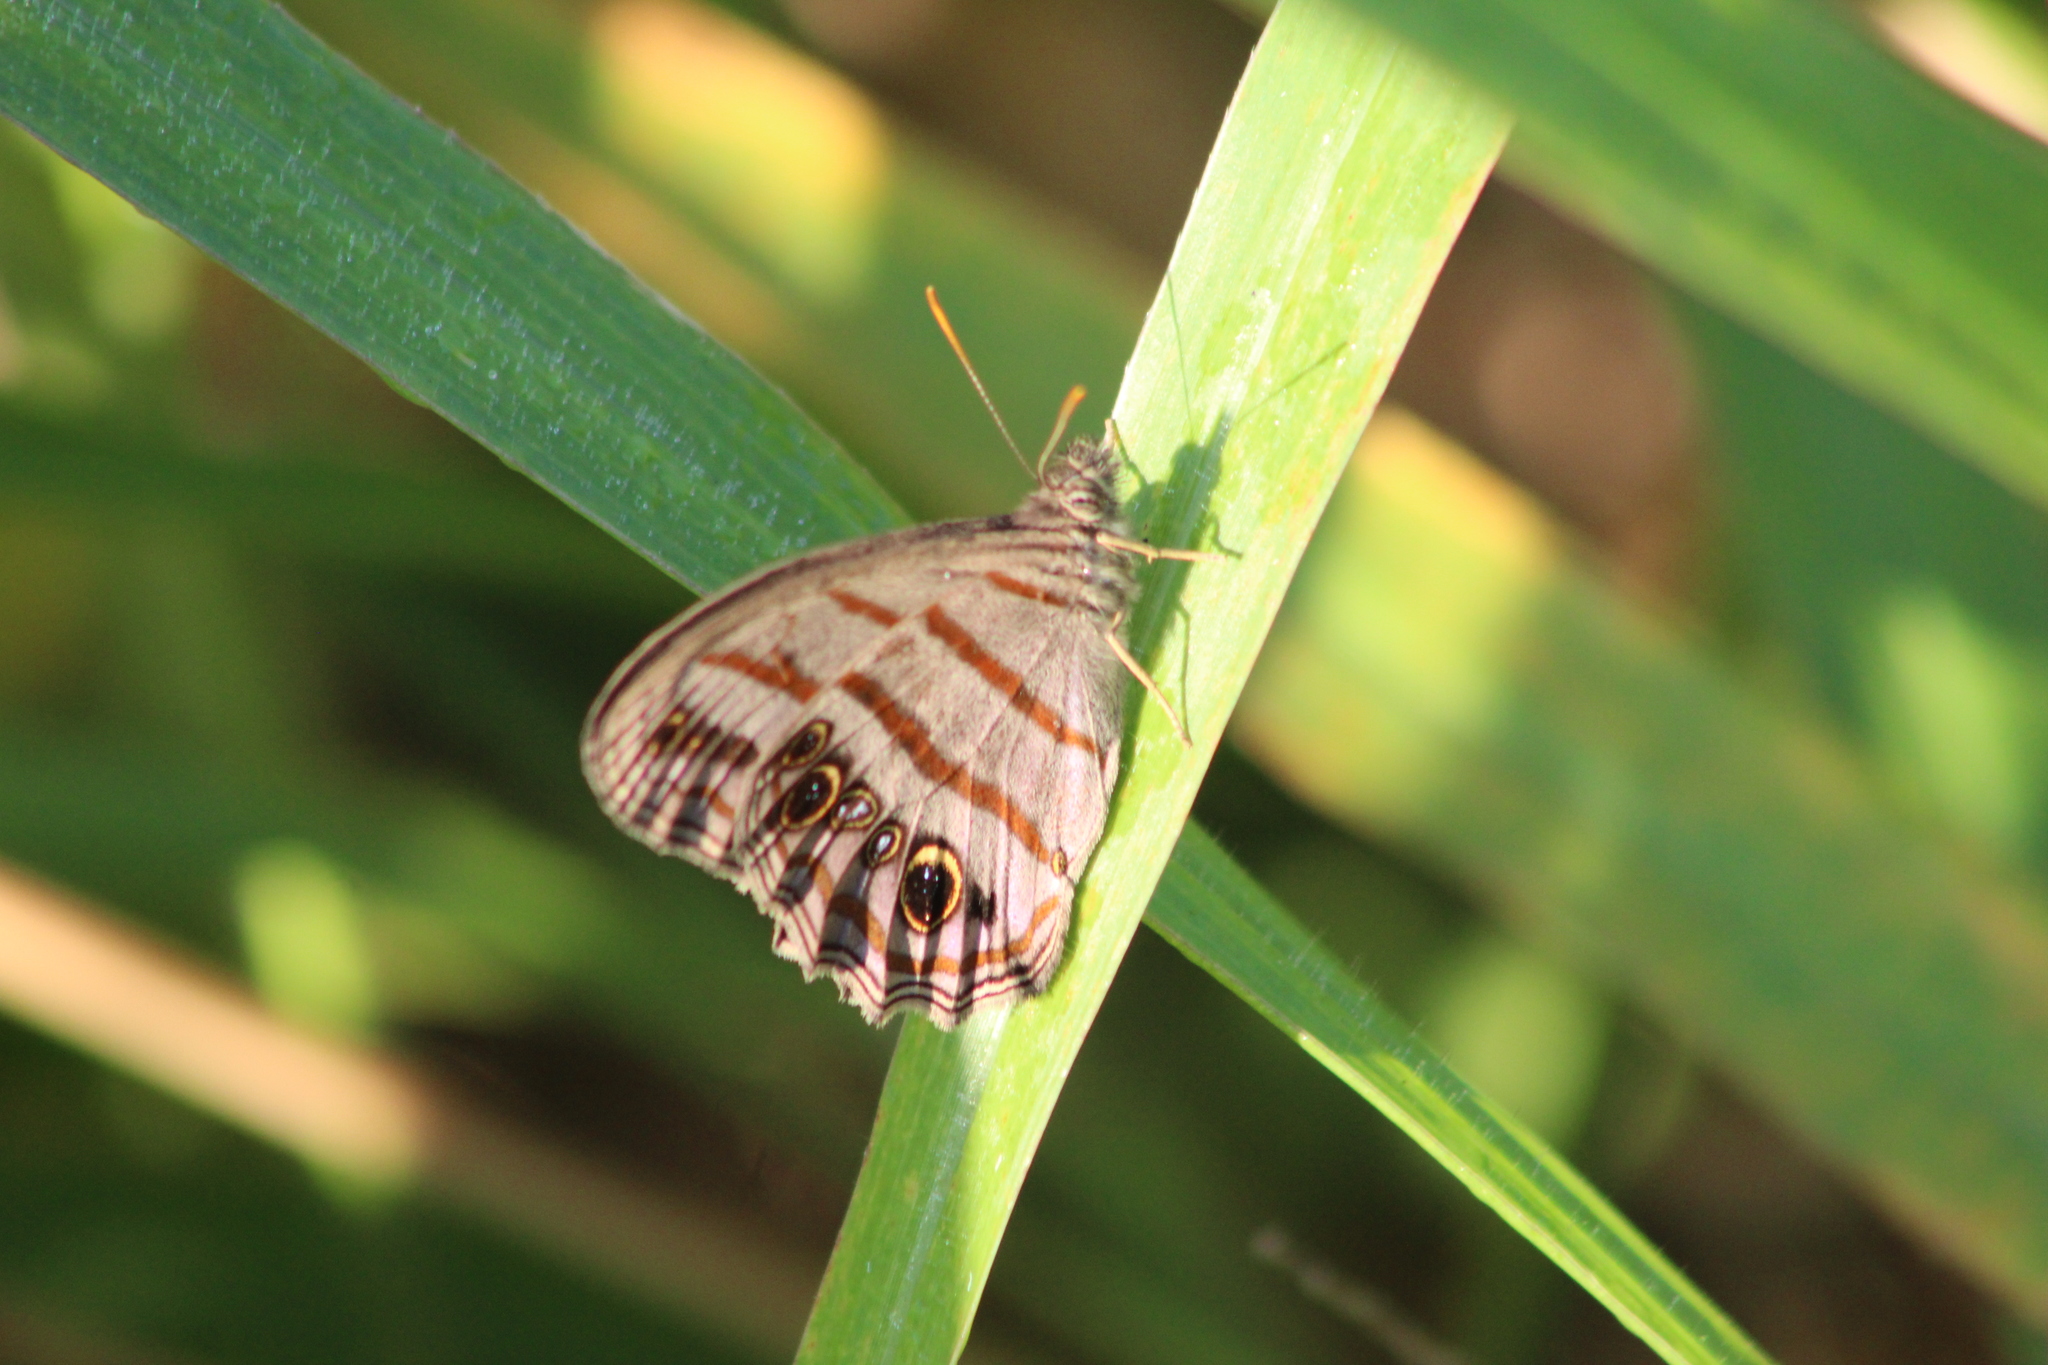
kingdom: Animalia
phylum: Arthropoda
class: Insecta
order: Lepidoptera
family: Nymphalidae
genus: Magneuptychia
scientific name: Magneuptychia libye
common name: Blue-gray satyr
